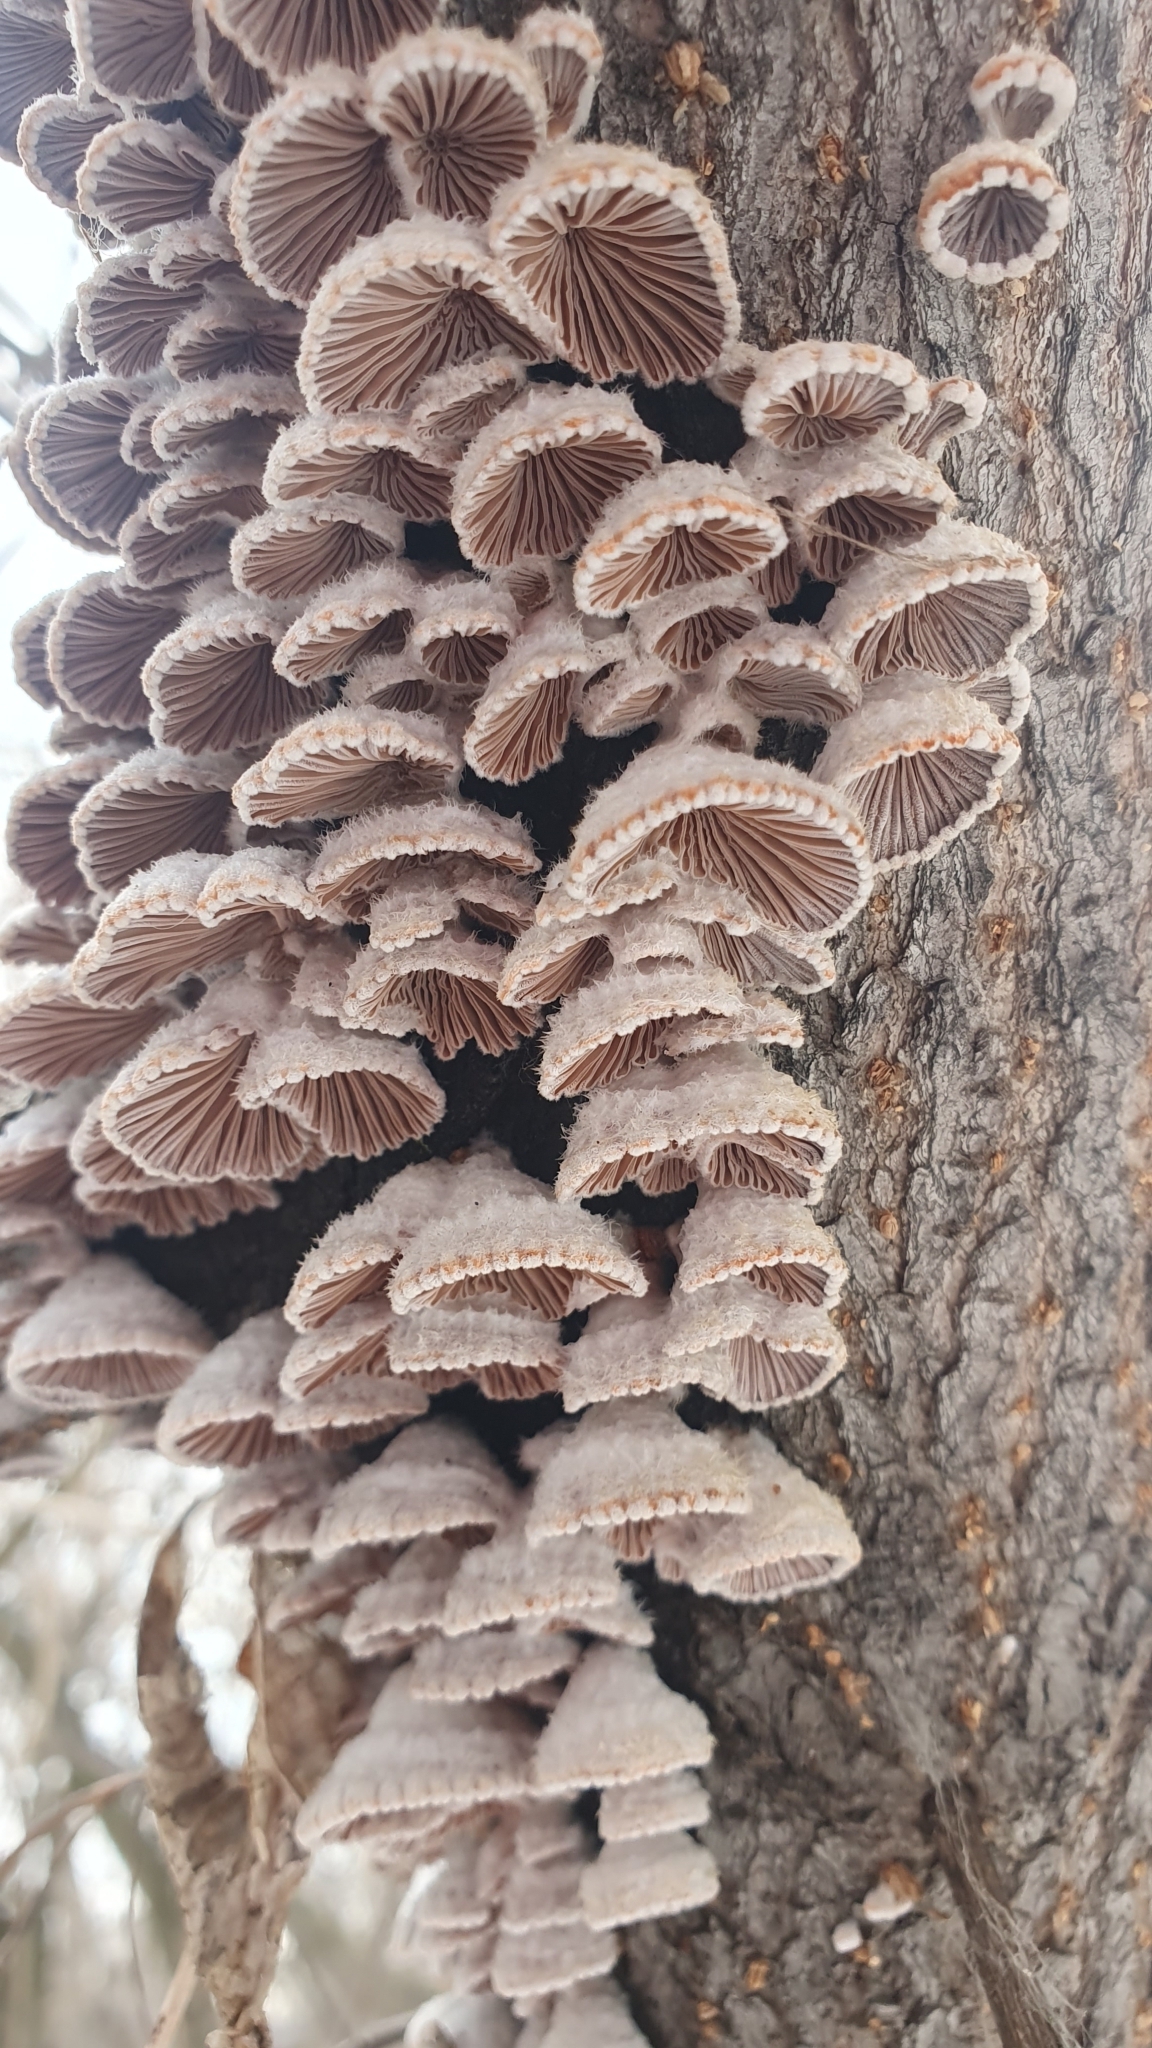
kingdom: Fungi
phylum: Basidiomycota
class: Agaricomycetes
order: Agaricales
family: Schizophyllaceae
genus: Schizophyllum
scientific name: Schizophyllum commune
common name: Common porecrust
